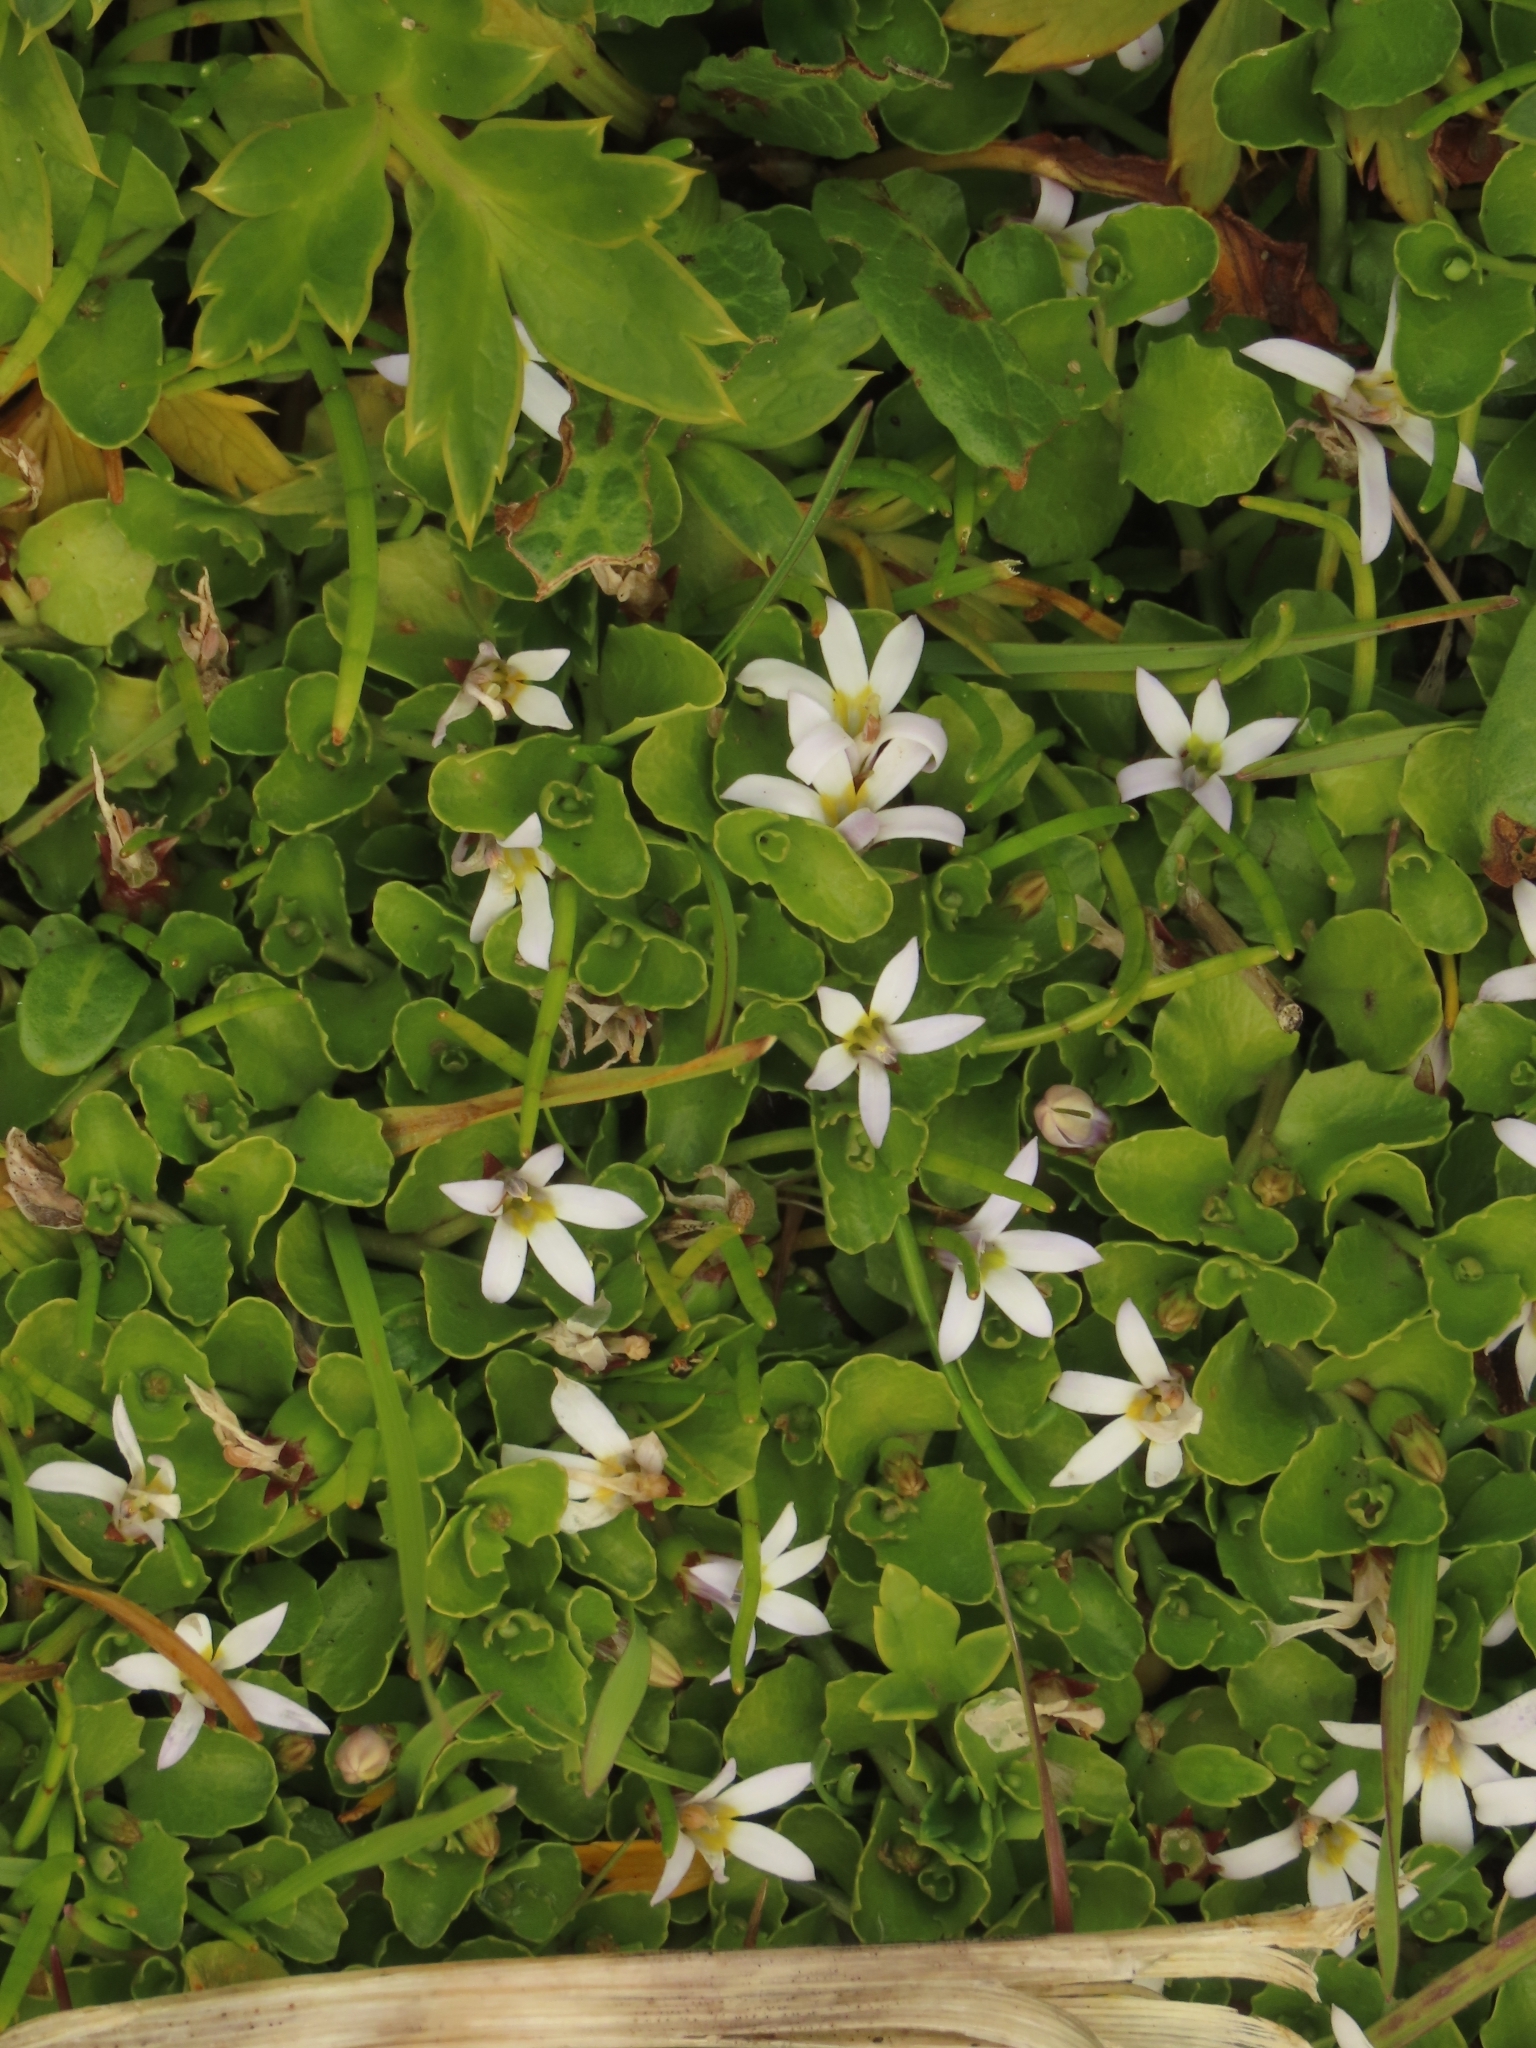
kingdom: Plantae
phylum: Tracheophyta
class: Magnoliopsida
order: Asterales
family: Campanulaceae
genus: Lobelia
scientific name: Lobelia angulata
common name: Lawn lobelia
